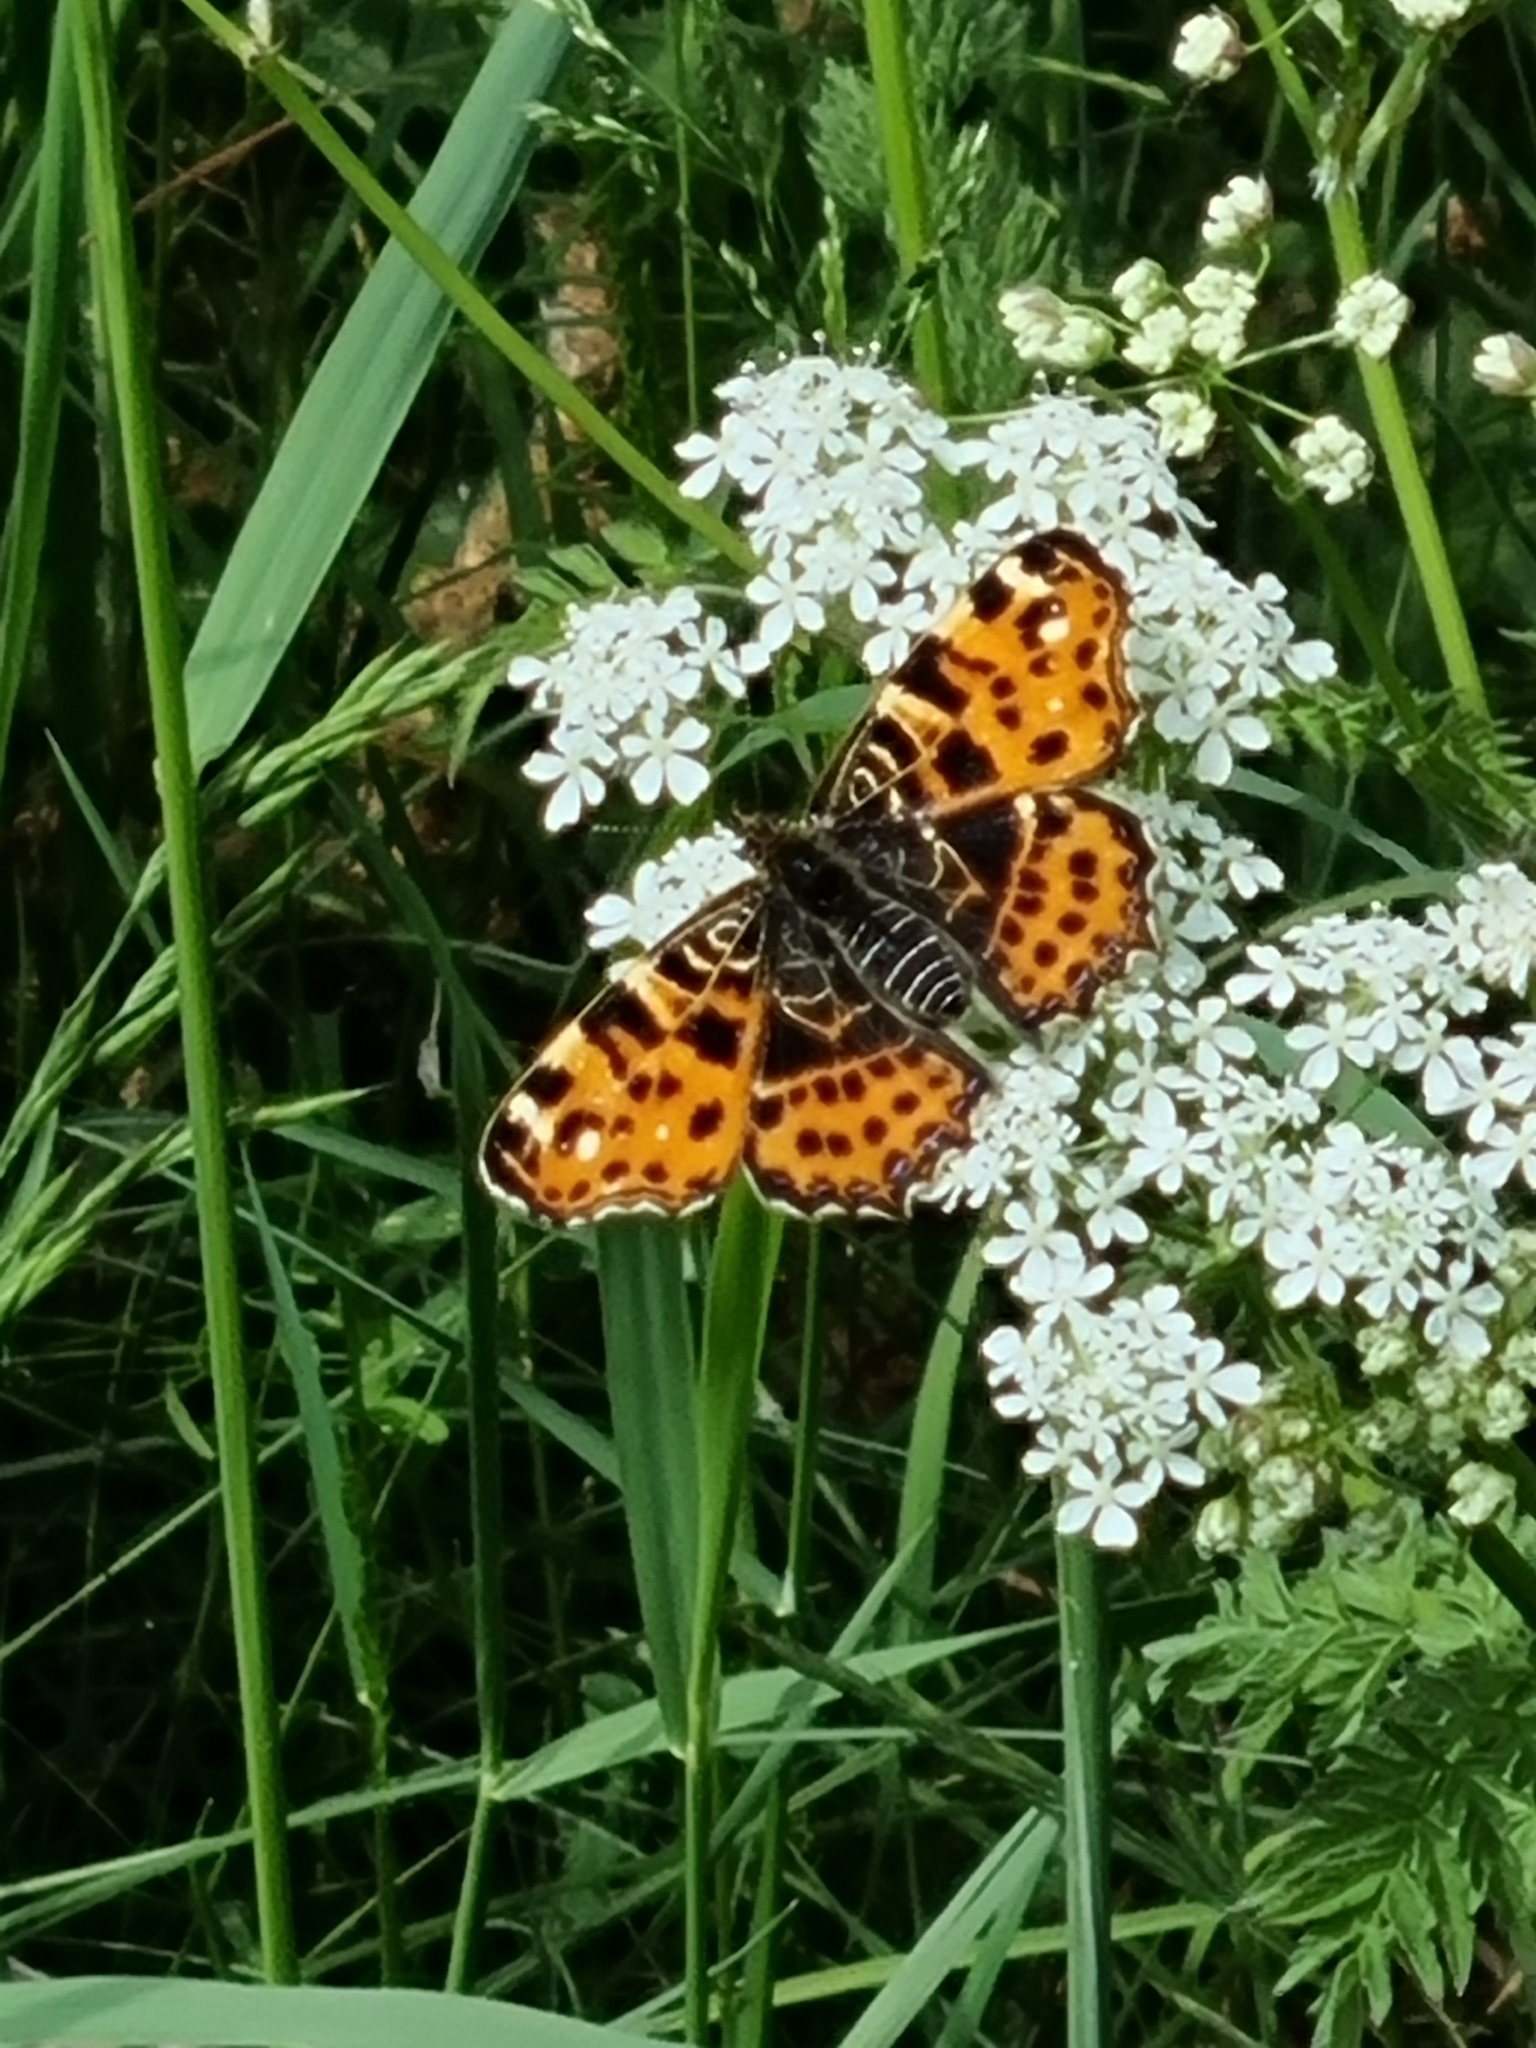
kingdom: Animalia
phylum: Arthropoda
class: Insecta
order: Lepidoptera
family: Nymphalidae
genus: Araschnia
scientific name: Araschnia levana
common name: Map butterfly
